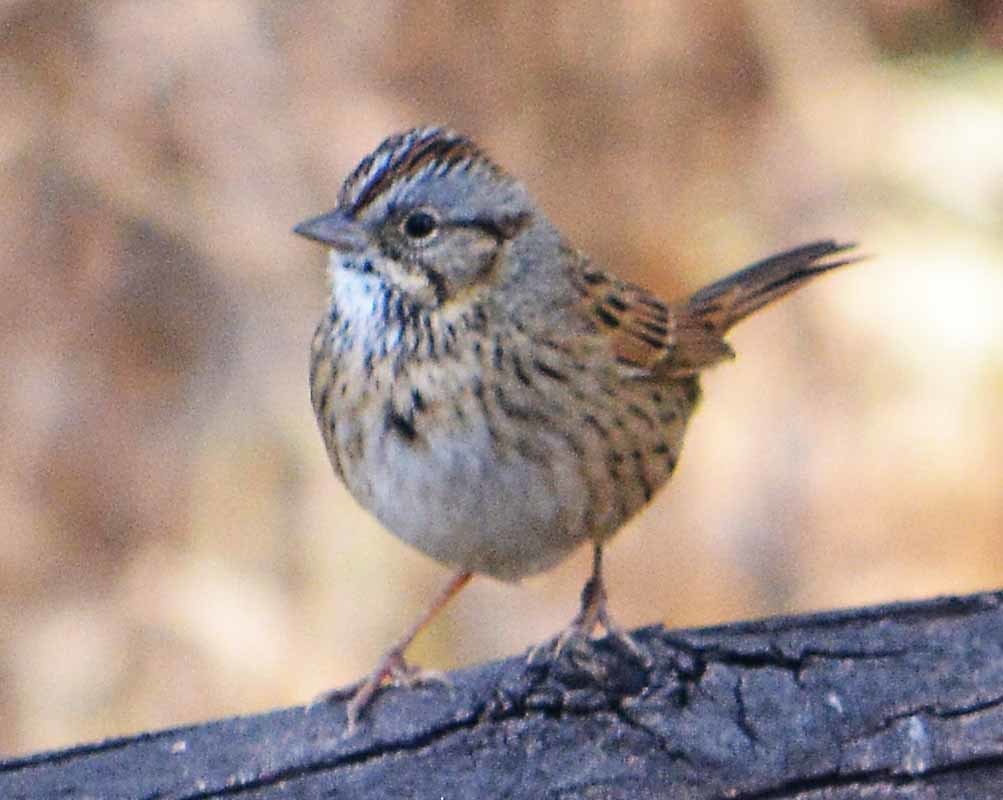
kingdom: Animalia
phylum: Chordata
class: Aves
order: Passeriformes
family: Passerellidae
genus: Melospiza
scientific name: Melospiza lincolnii
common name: Lincoln's sparrow
